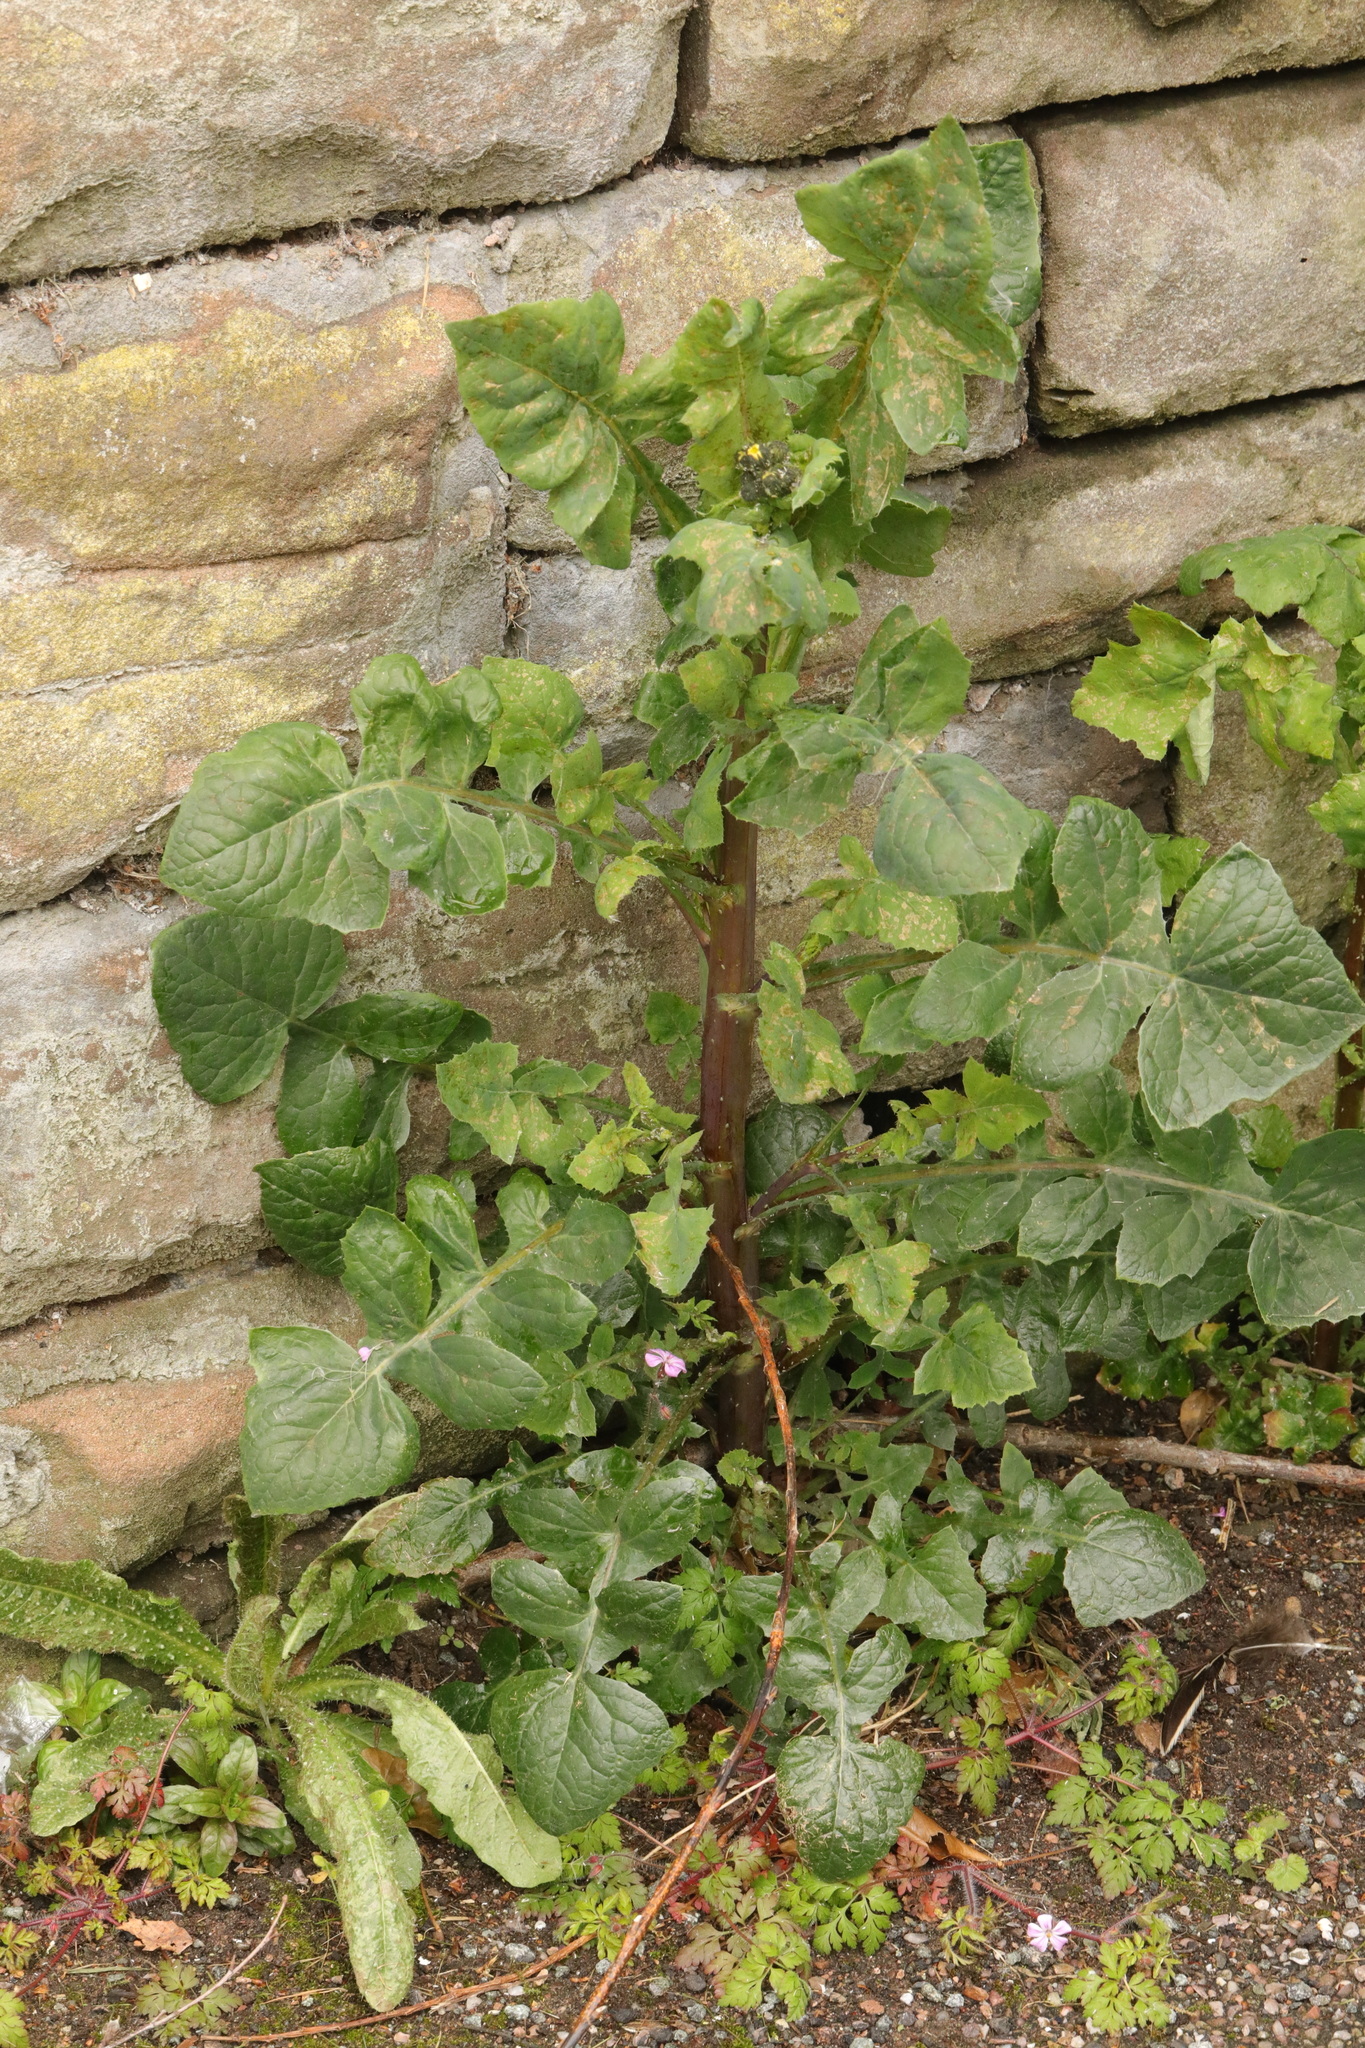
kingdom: Plantae
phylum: Tracheophyta
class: Magnoliopsida
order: Asterales
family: Asteraceae
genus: Sonchus
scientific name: Sonchus oleraceus
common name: Common sowthistle
